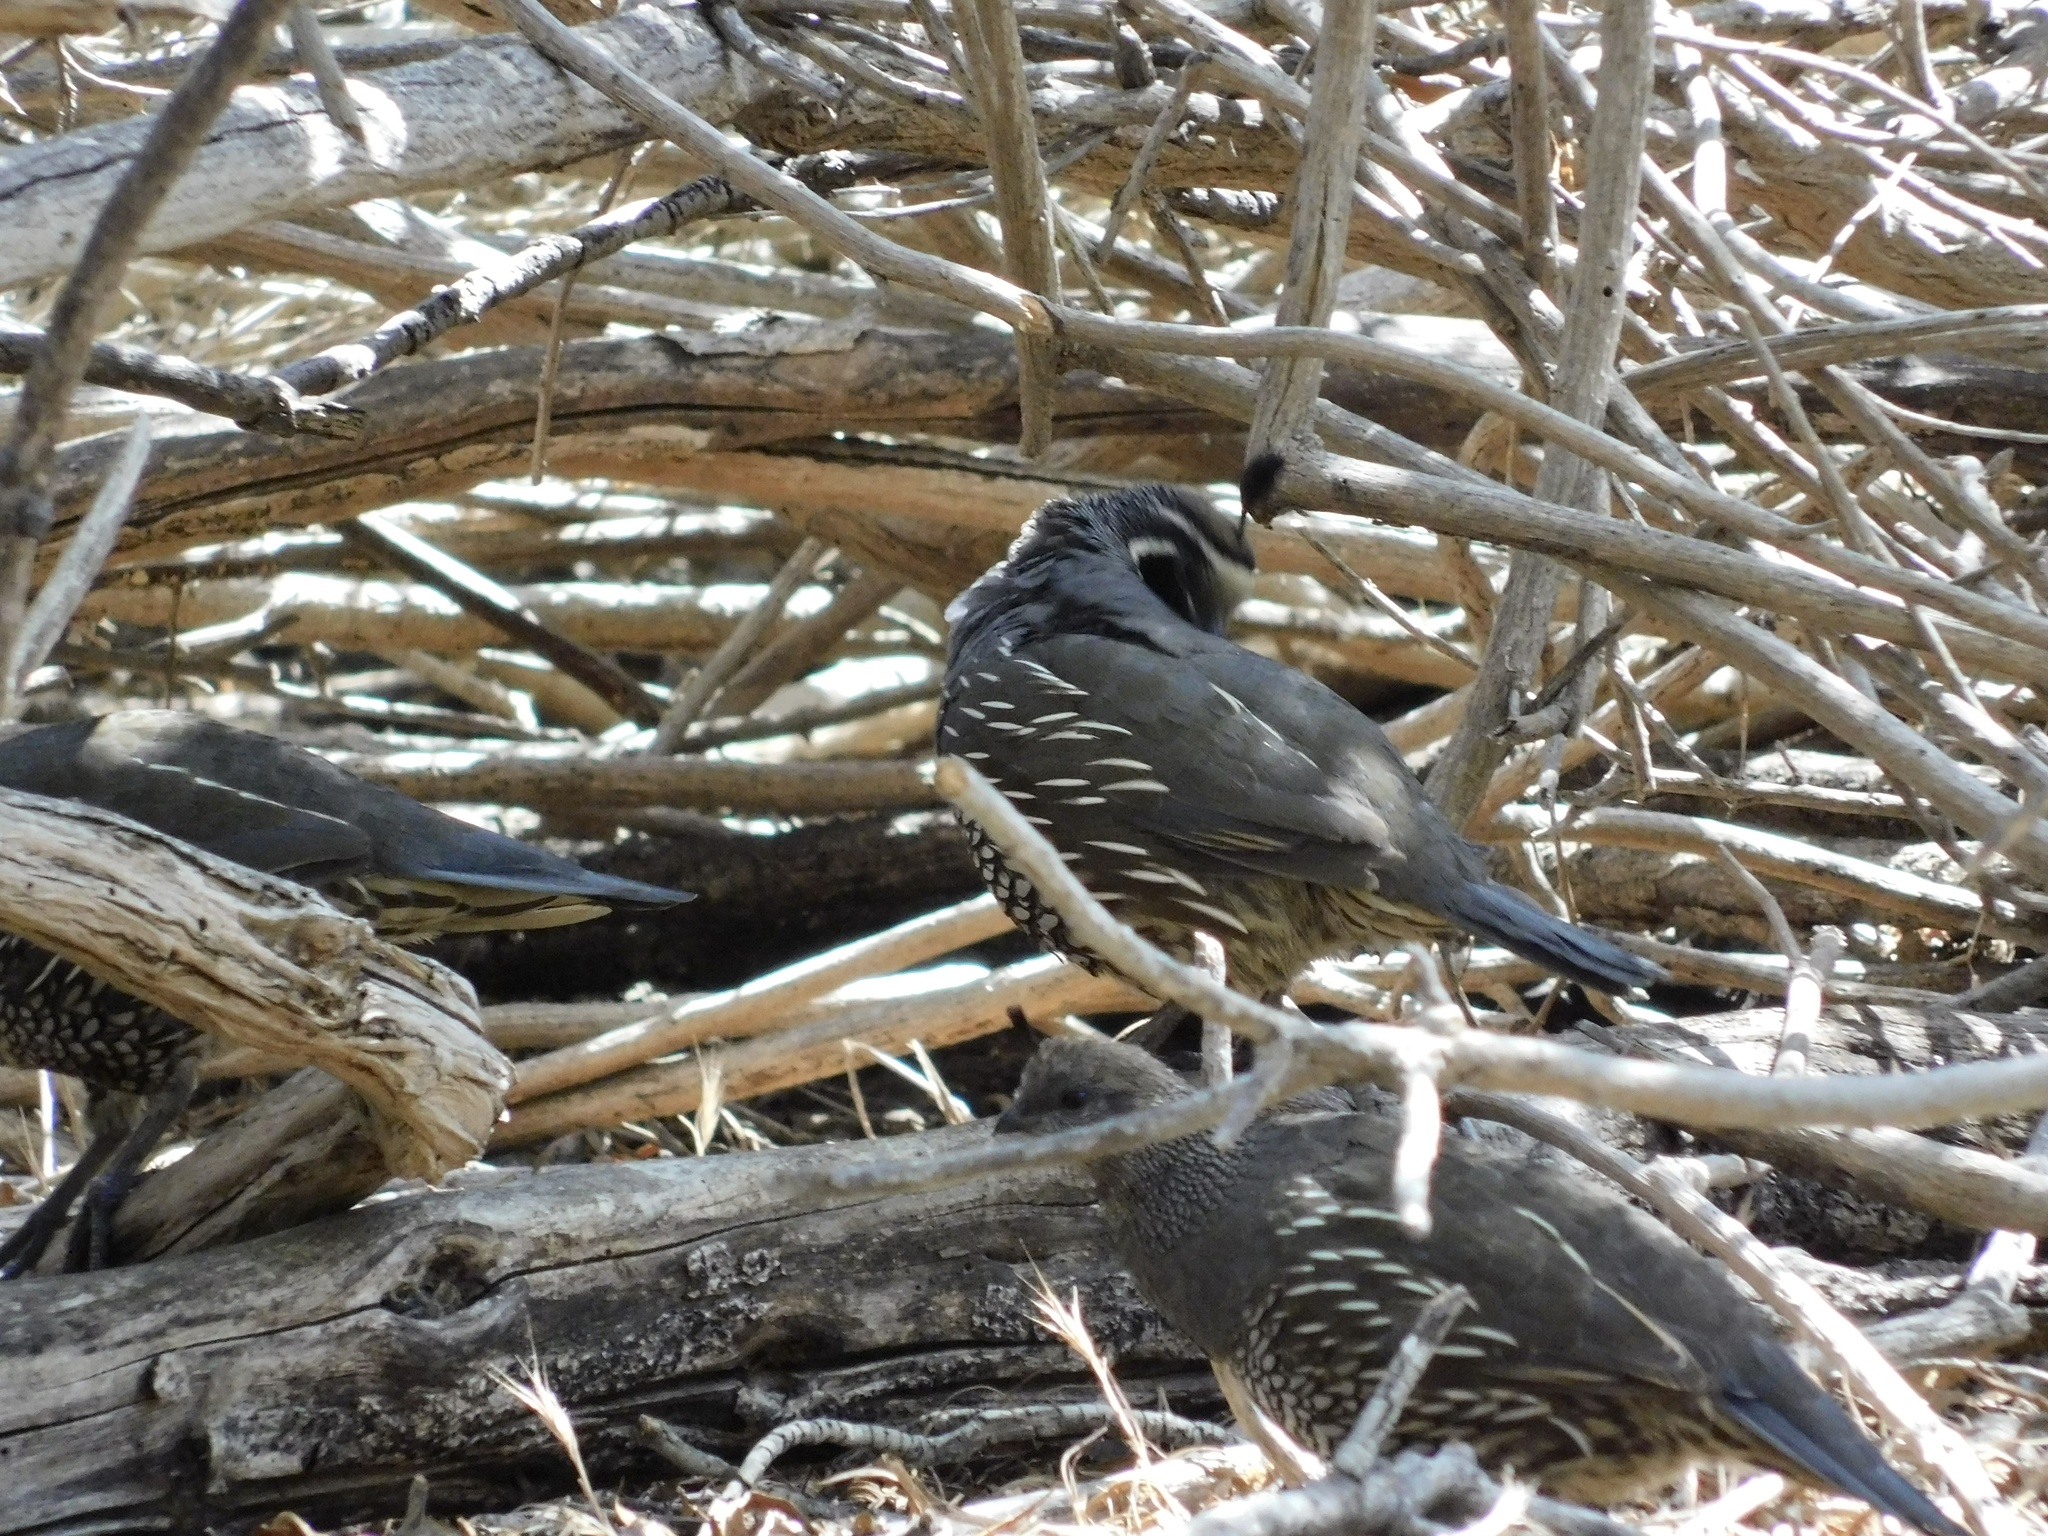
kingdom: Animalia
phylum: Chordata
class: Aves
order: Galliformes
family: Odontophoridae
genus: Callipepla
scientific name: Callipepla californica
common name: California quail
